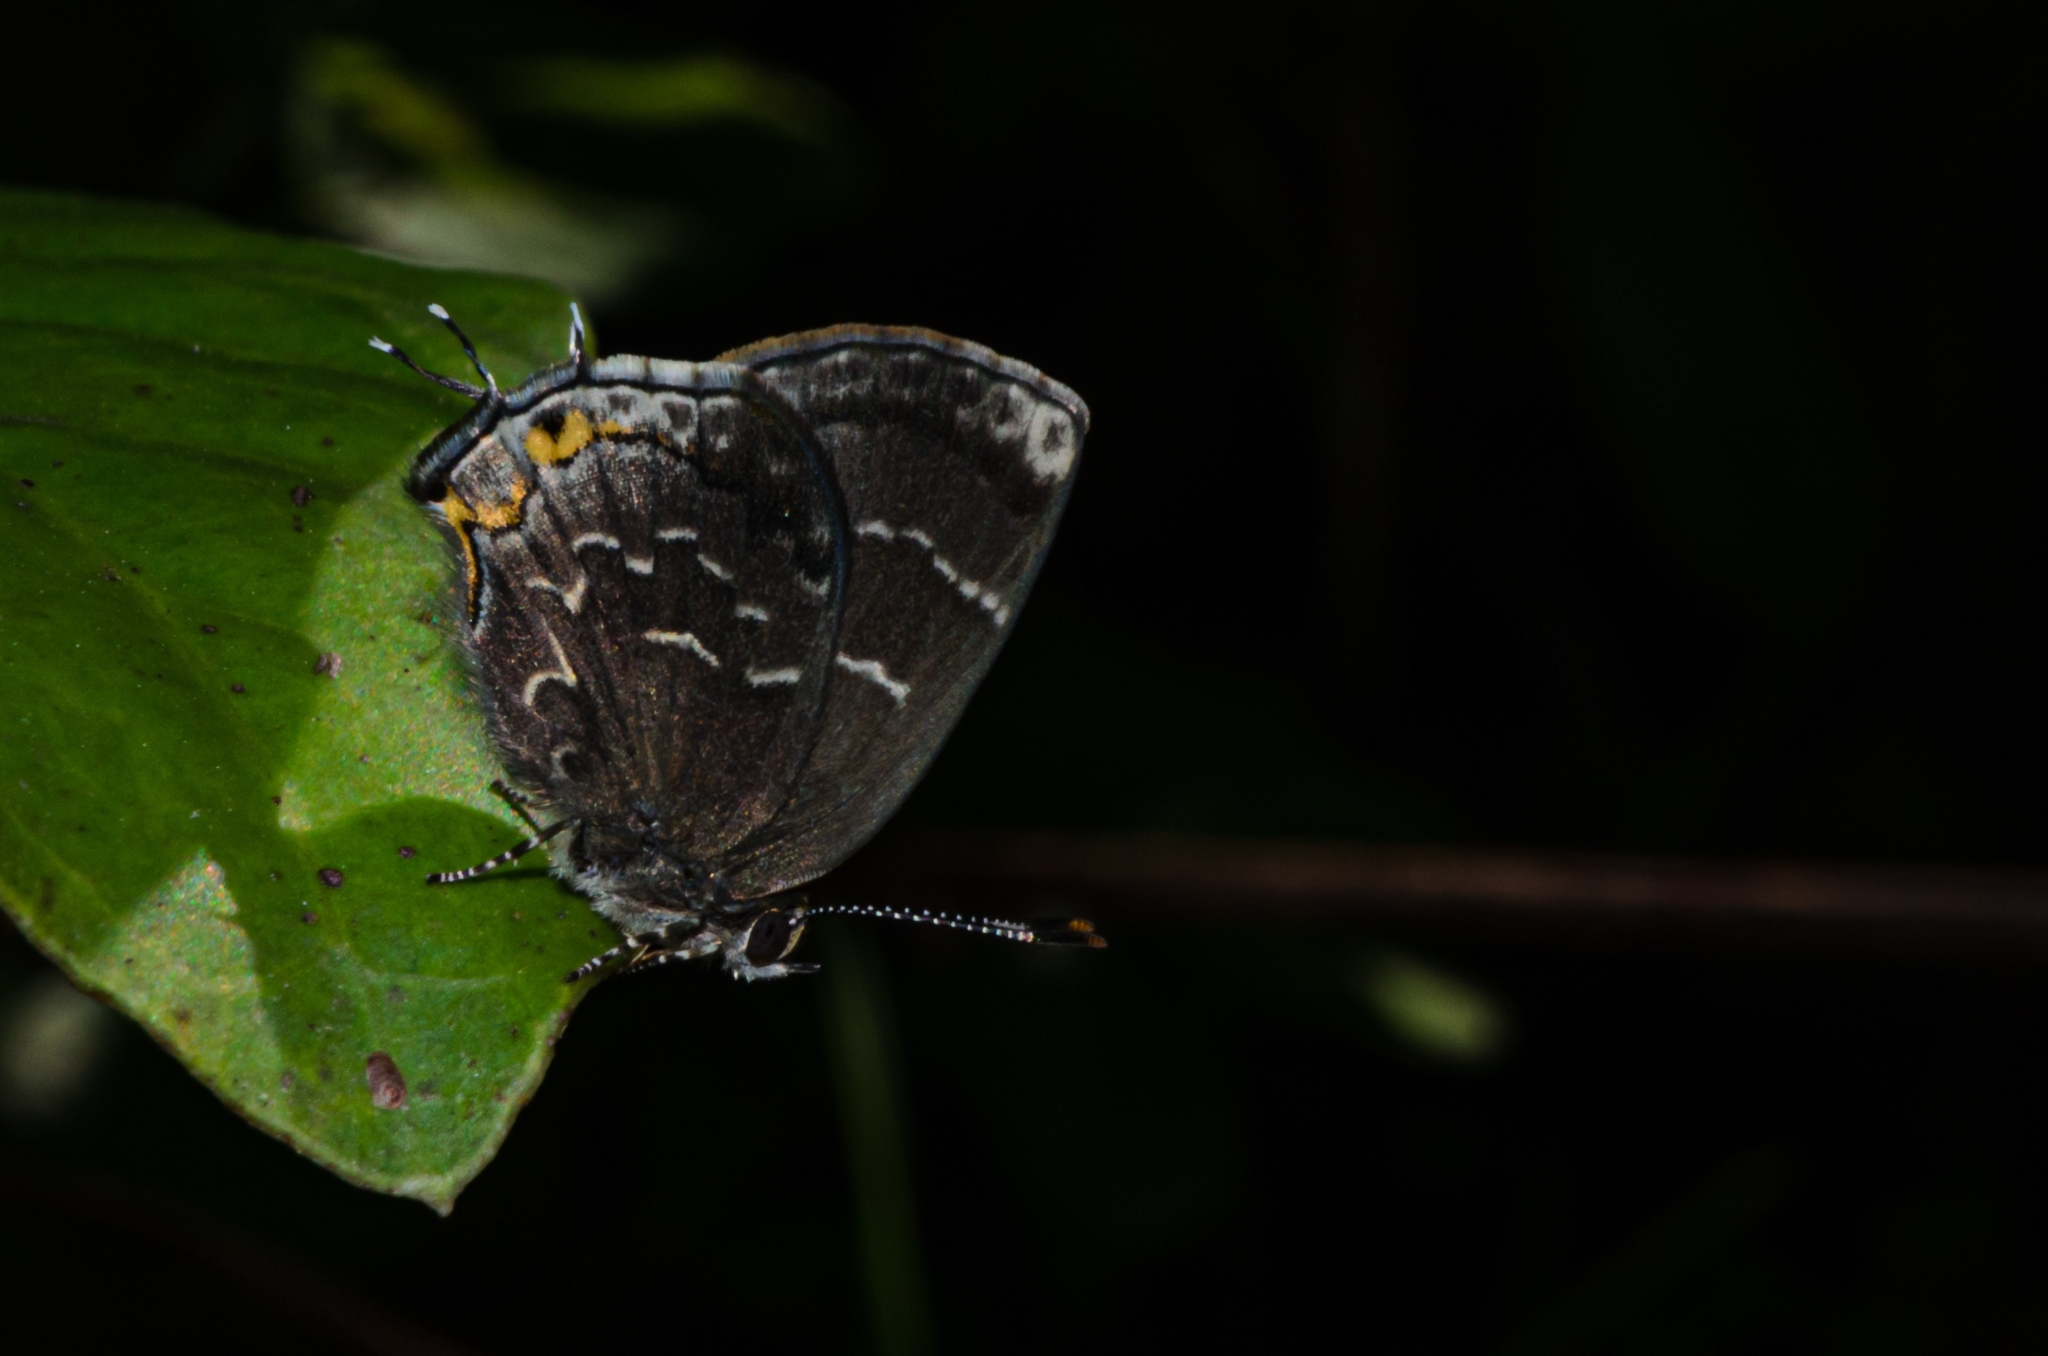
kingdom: Animalia
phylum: Arthropoda
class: Insecta
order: Lepidoptera
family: Lycaenidae
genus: Ocaria
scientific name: Ocaria ocrisia
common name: Black hairstreak
